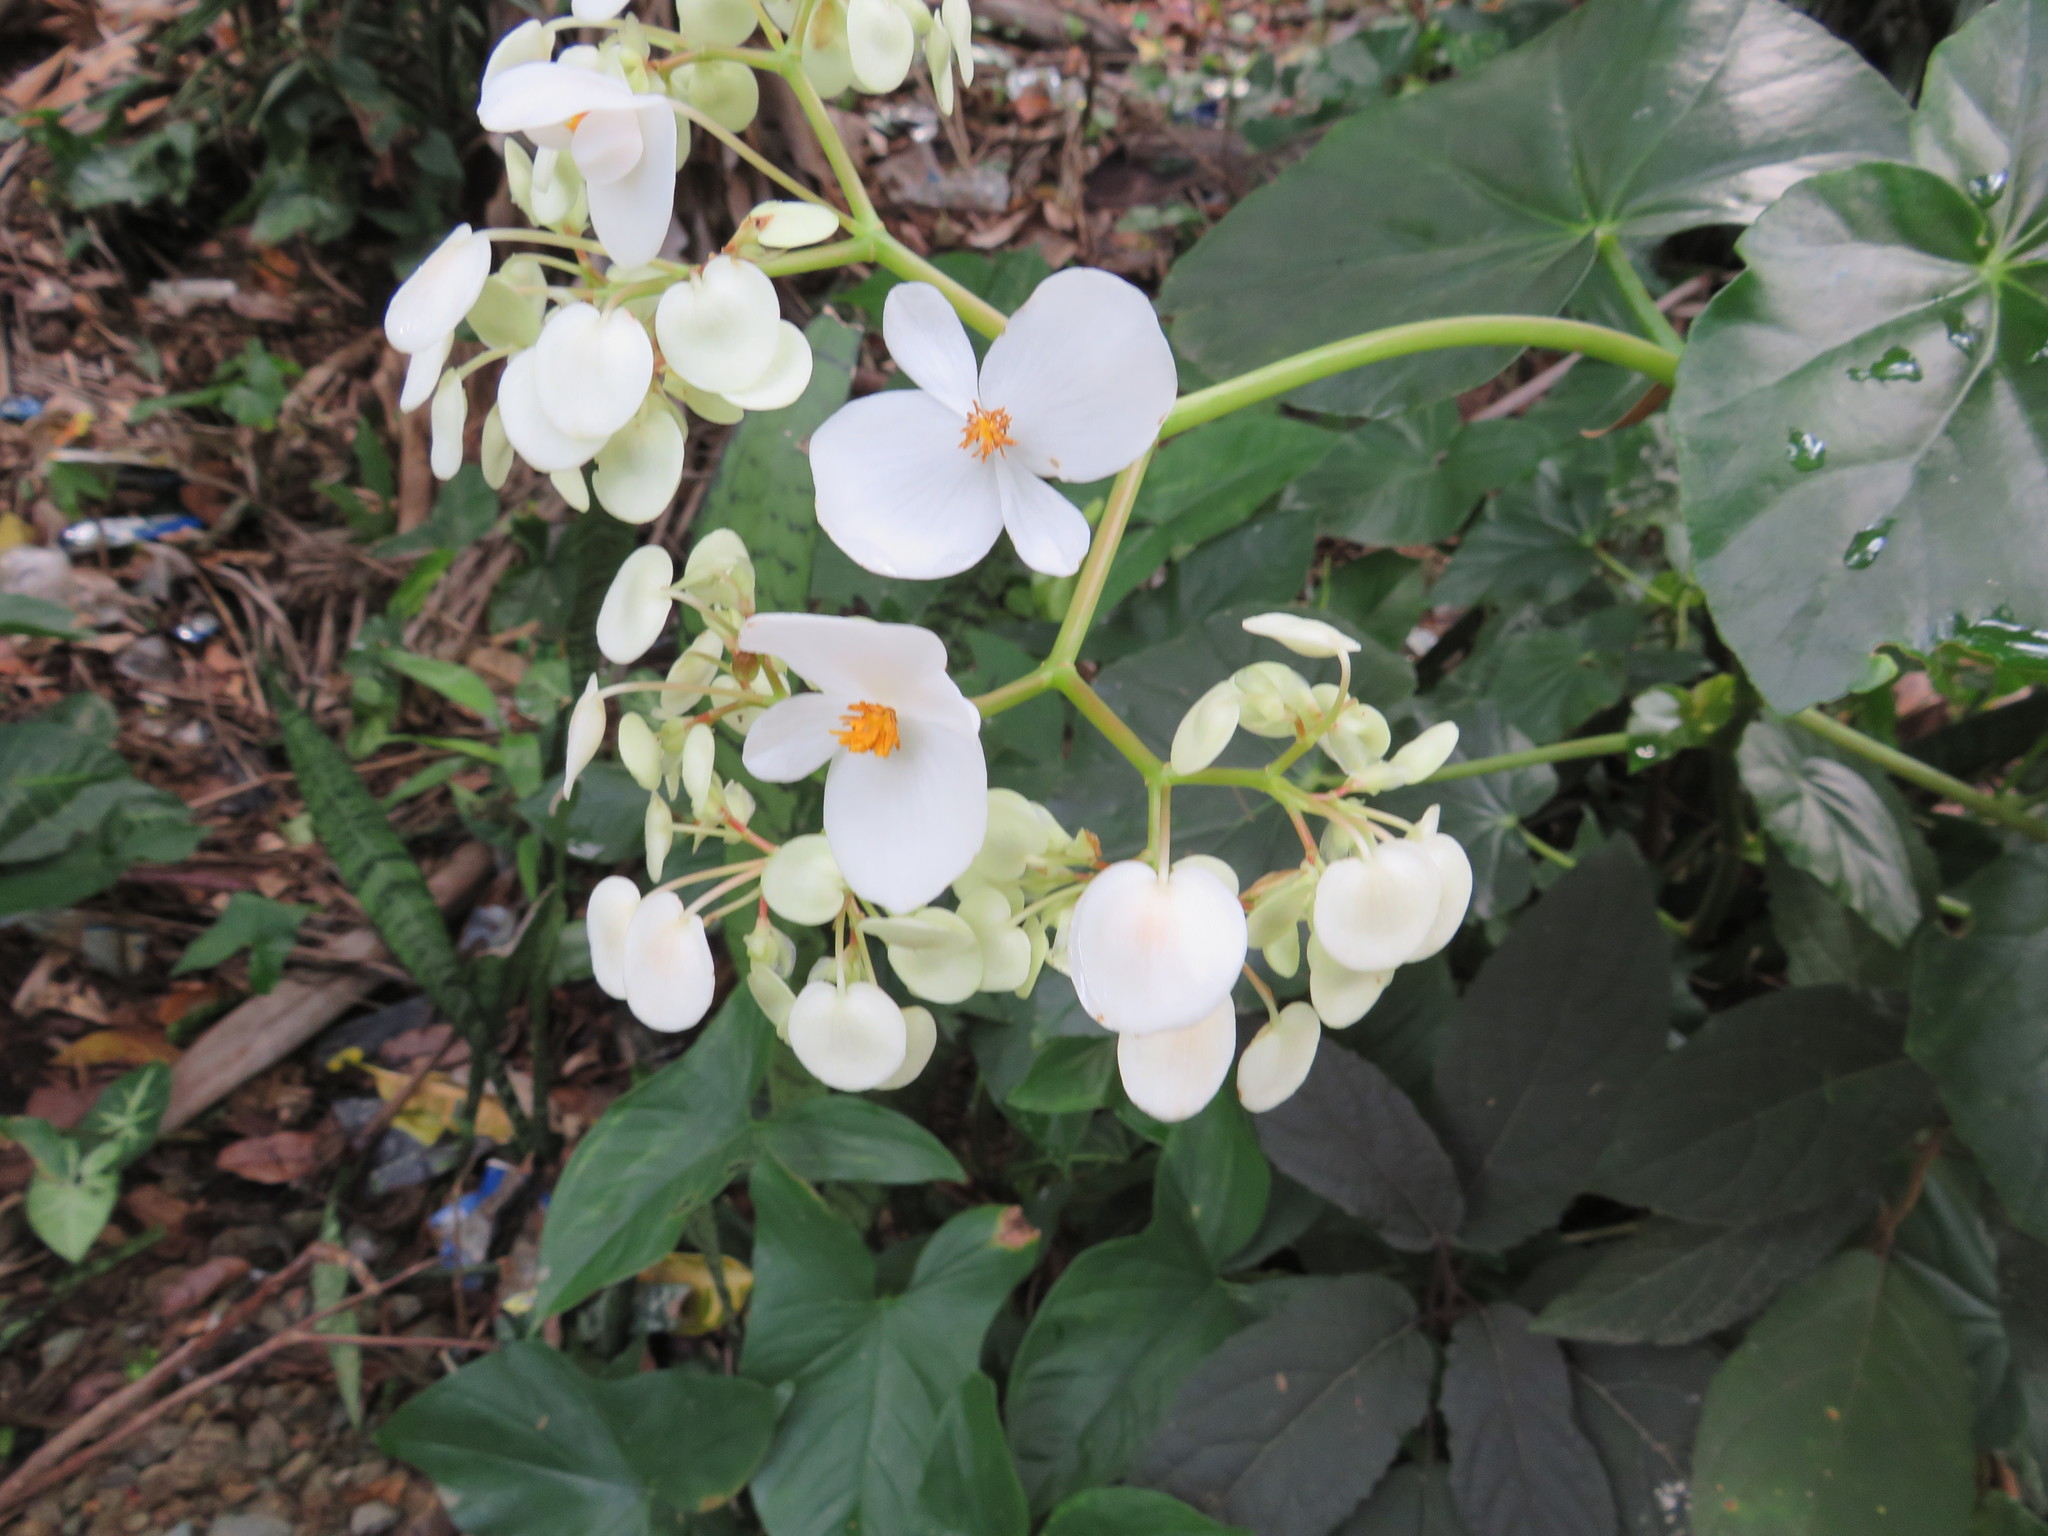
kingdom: Plantae
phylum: Tracheophyta
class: Magnoliopsida
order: Cucurbitales
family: Begoniaceae
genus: Begonia
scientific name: Begonia obliqua
